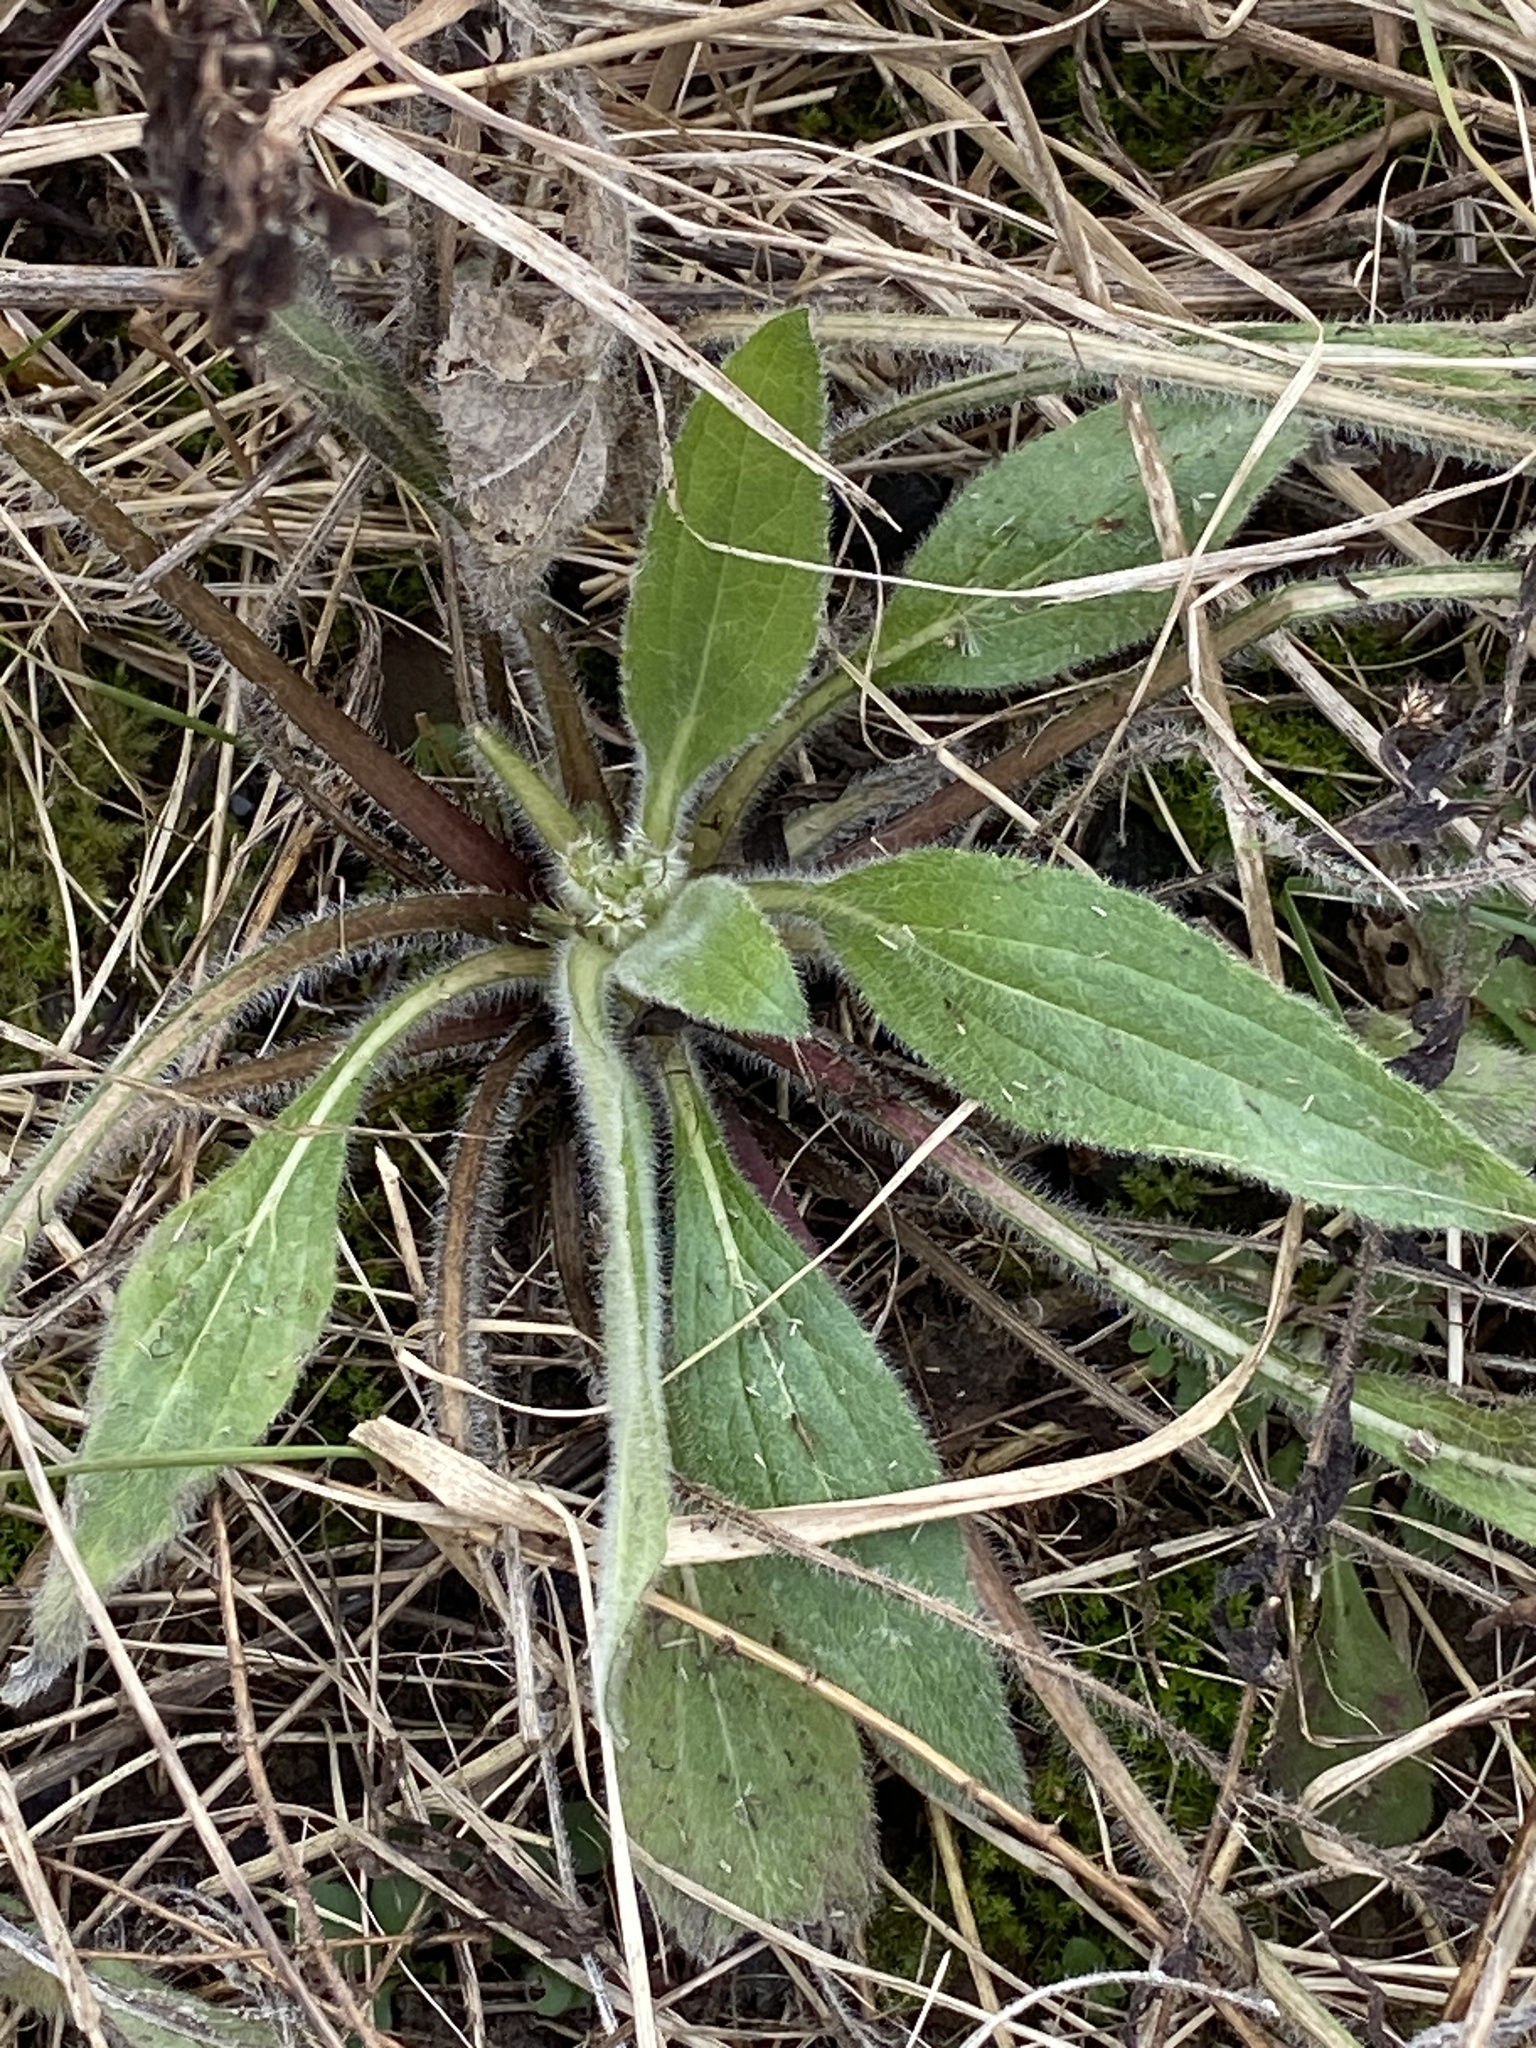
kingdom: Plantae
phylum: Tracheophyta
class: Magnoliopsida
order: Asterales
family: Asteraceae
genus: Rudbeckia
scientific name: Rudbeckia hirta
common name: Black-eyed-susan
